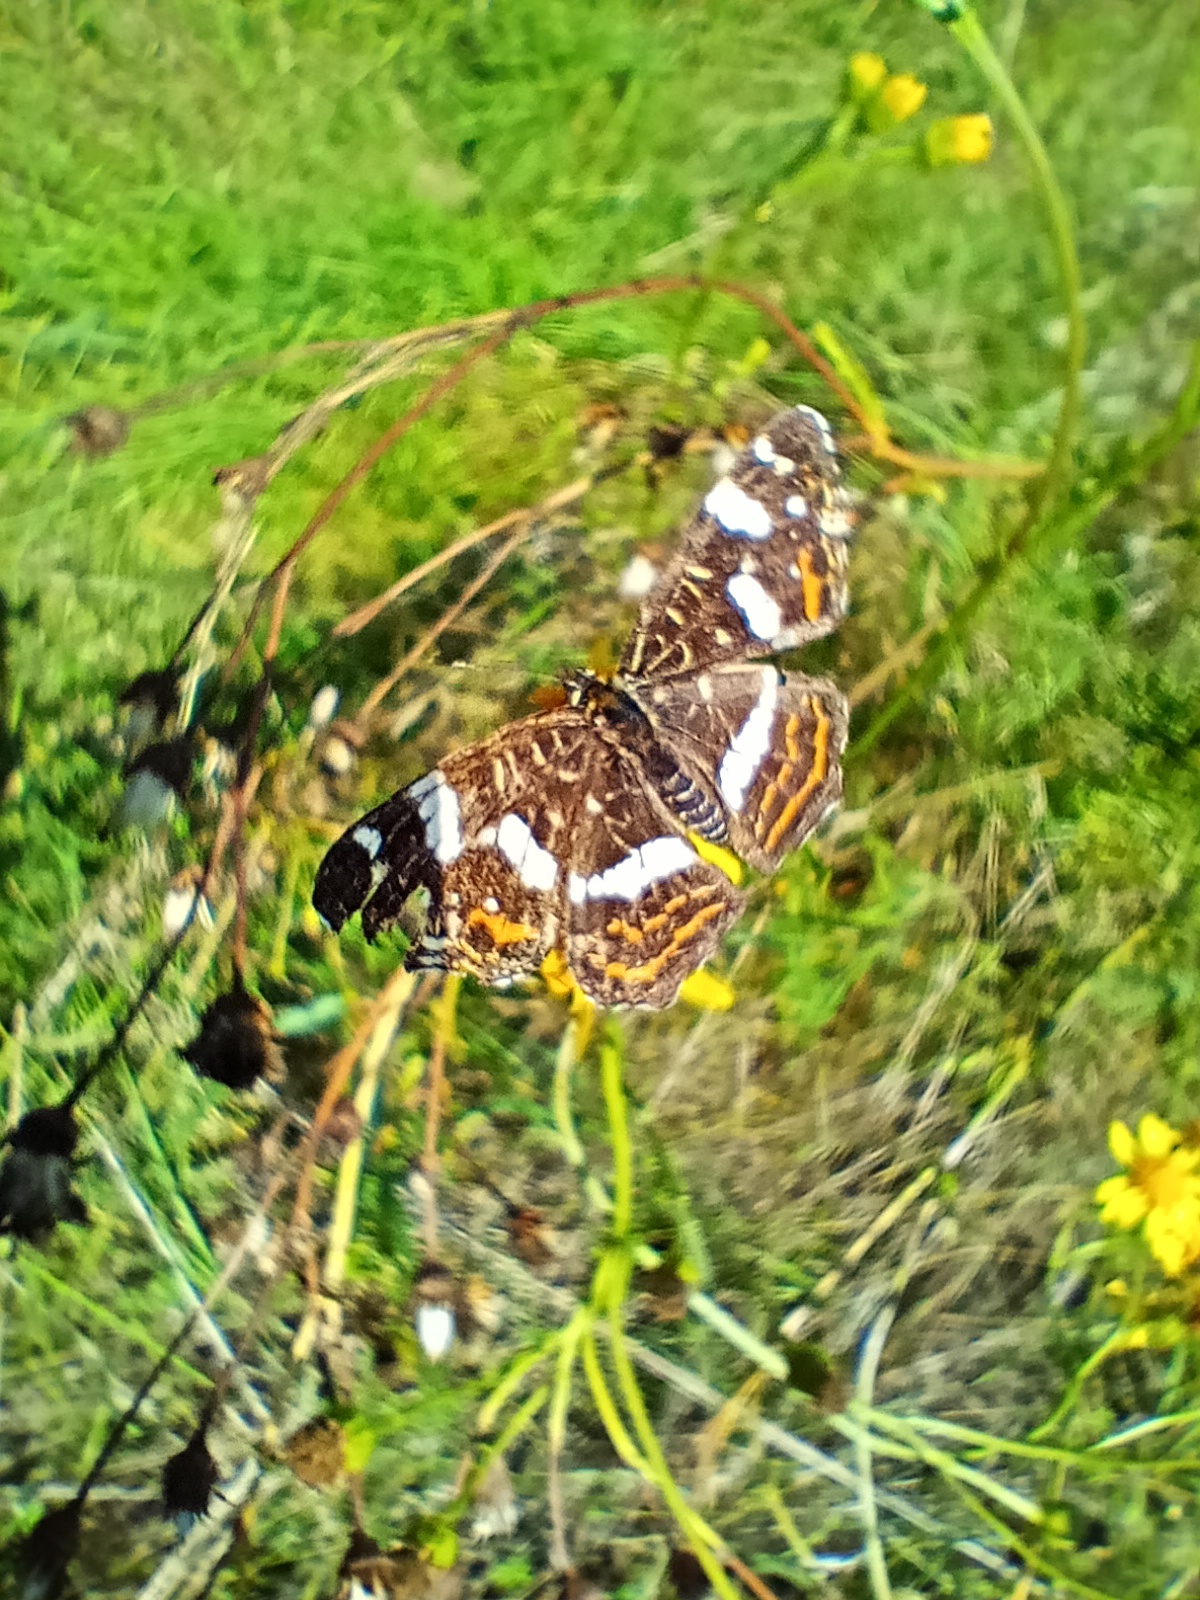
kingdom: Animalia
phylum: Arthropoda
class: Insecta
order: Lepidoptera
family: Nymphalidae
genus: Araschnia
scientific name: Araschnia levana
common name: Map butterfly
